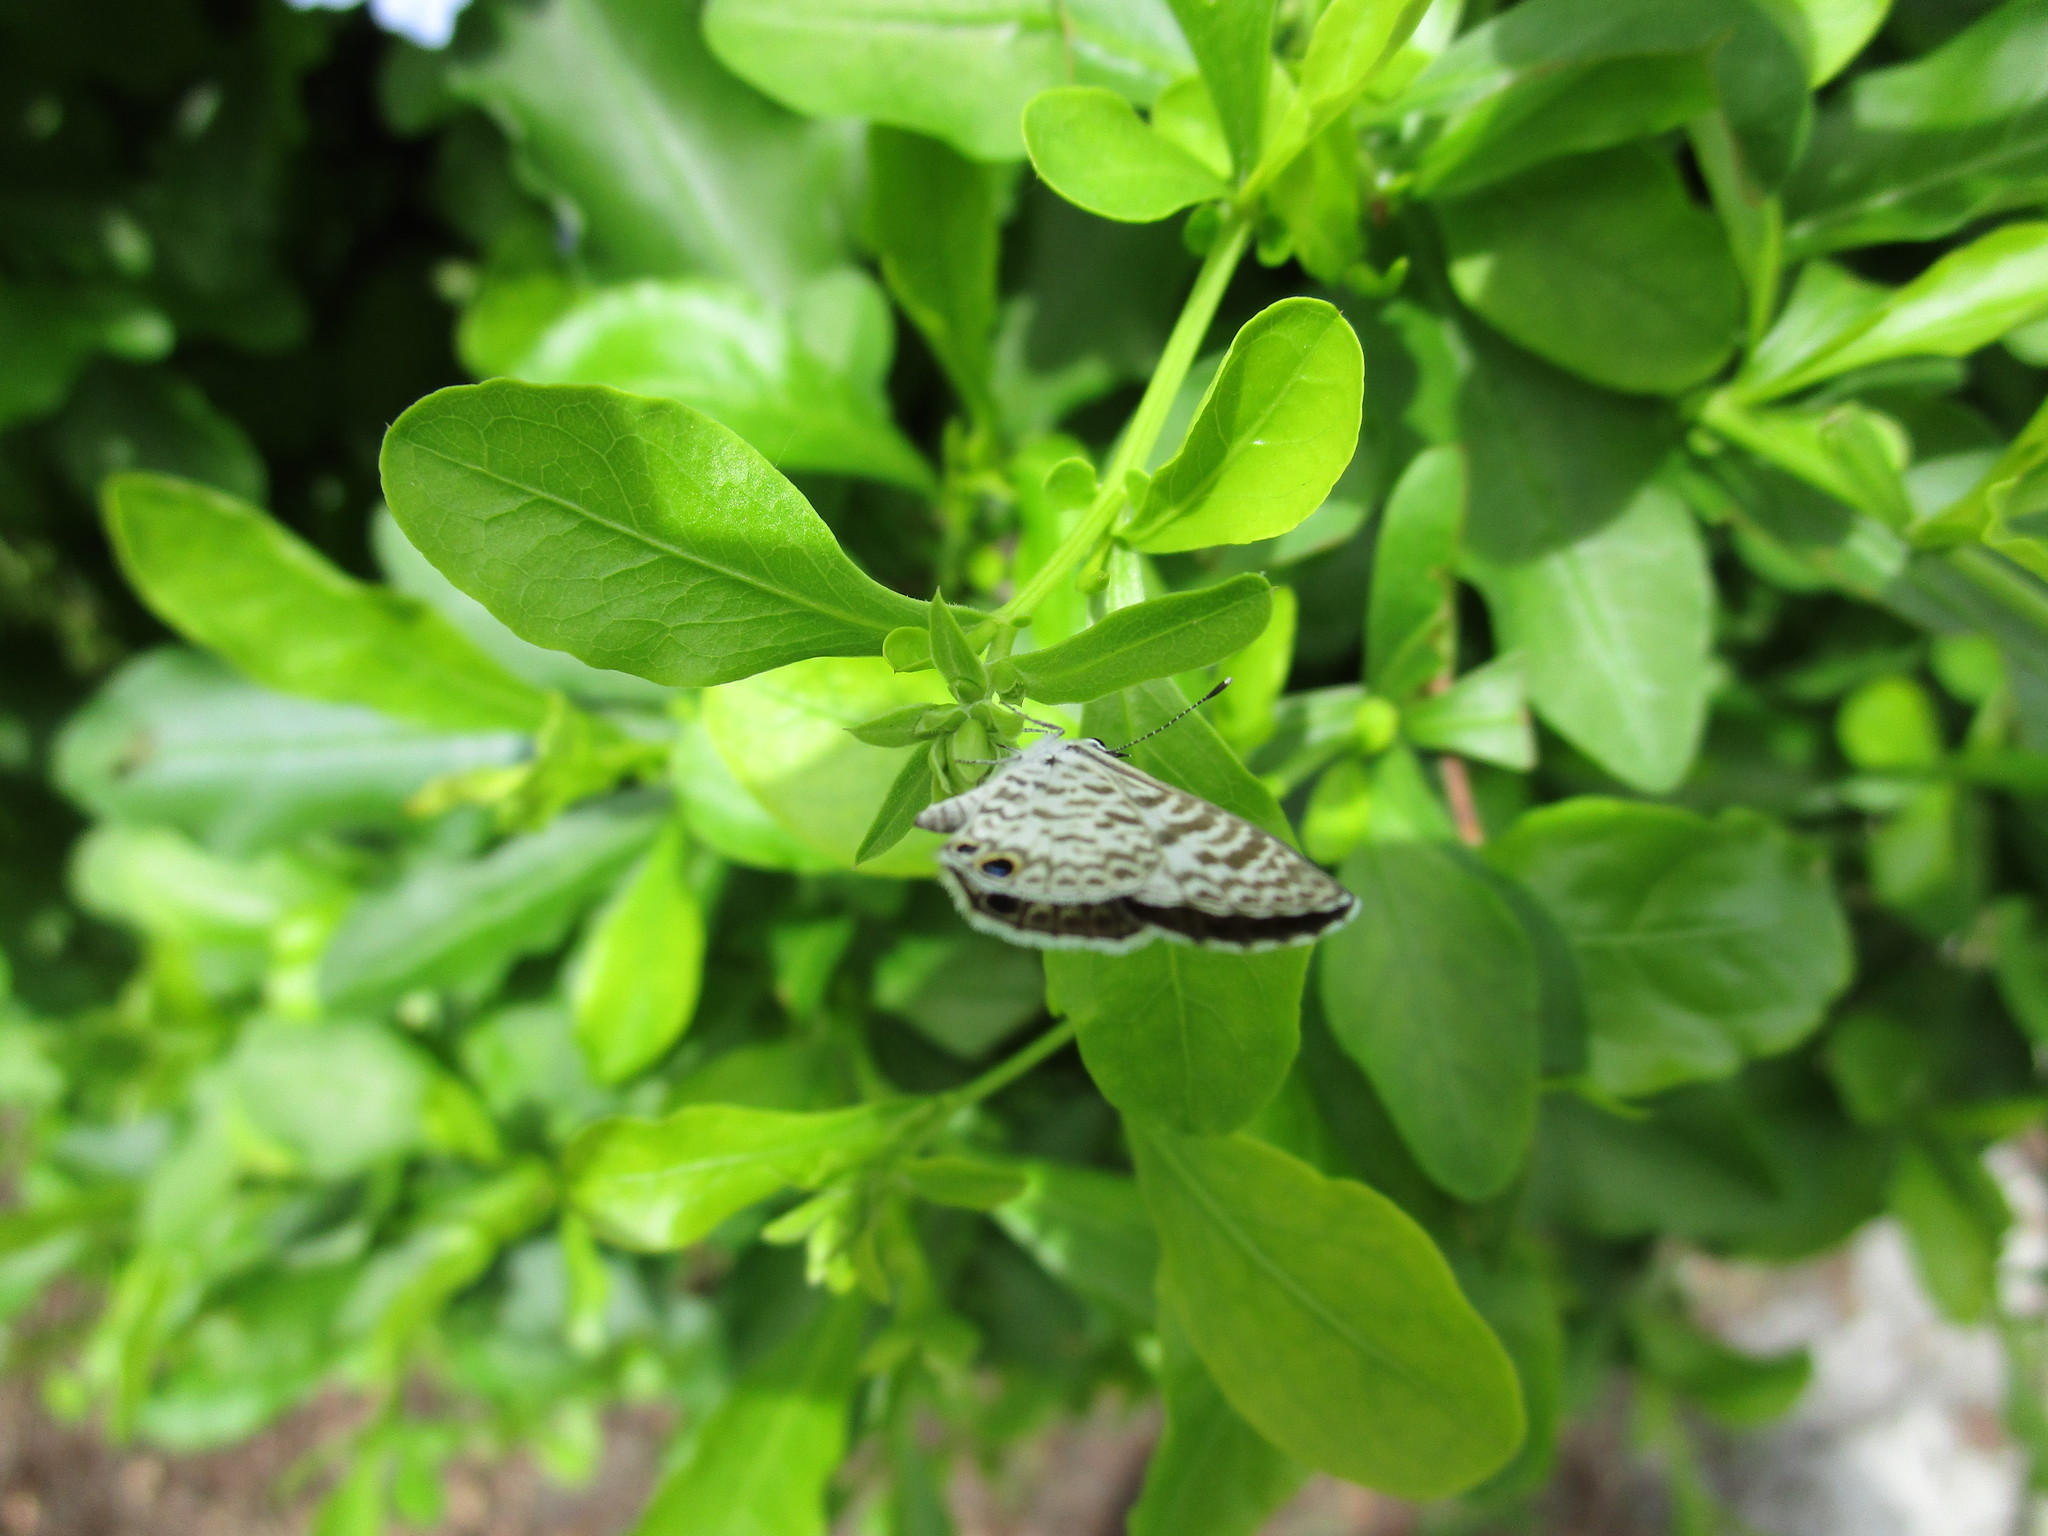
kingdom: Animalia
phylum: Arthropoda
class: Insecta
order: Lepidoptera
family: Lycaenidae
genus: Leptotes
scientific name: Leptotes cassius
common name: Cassius blue
